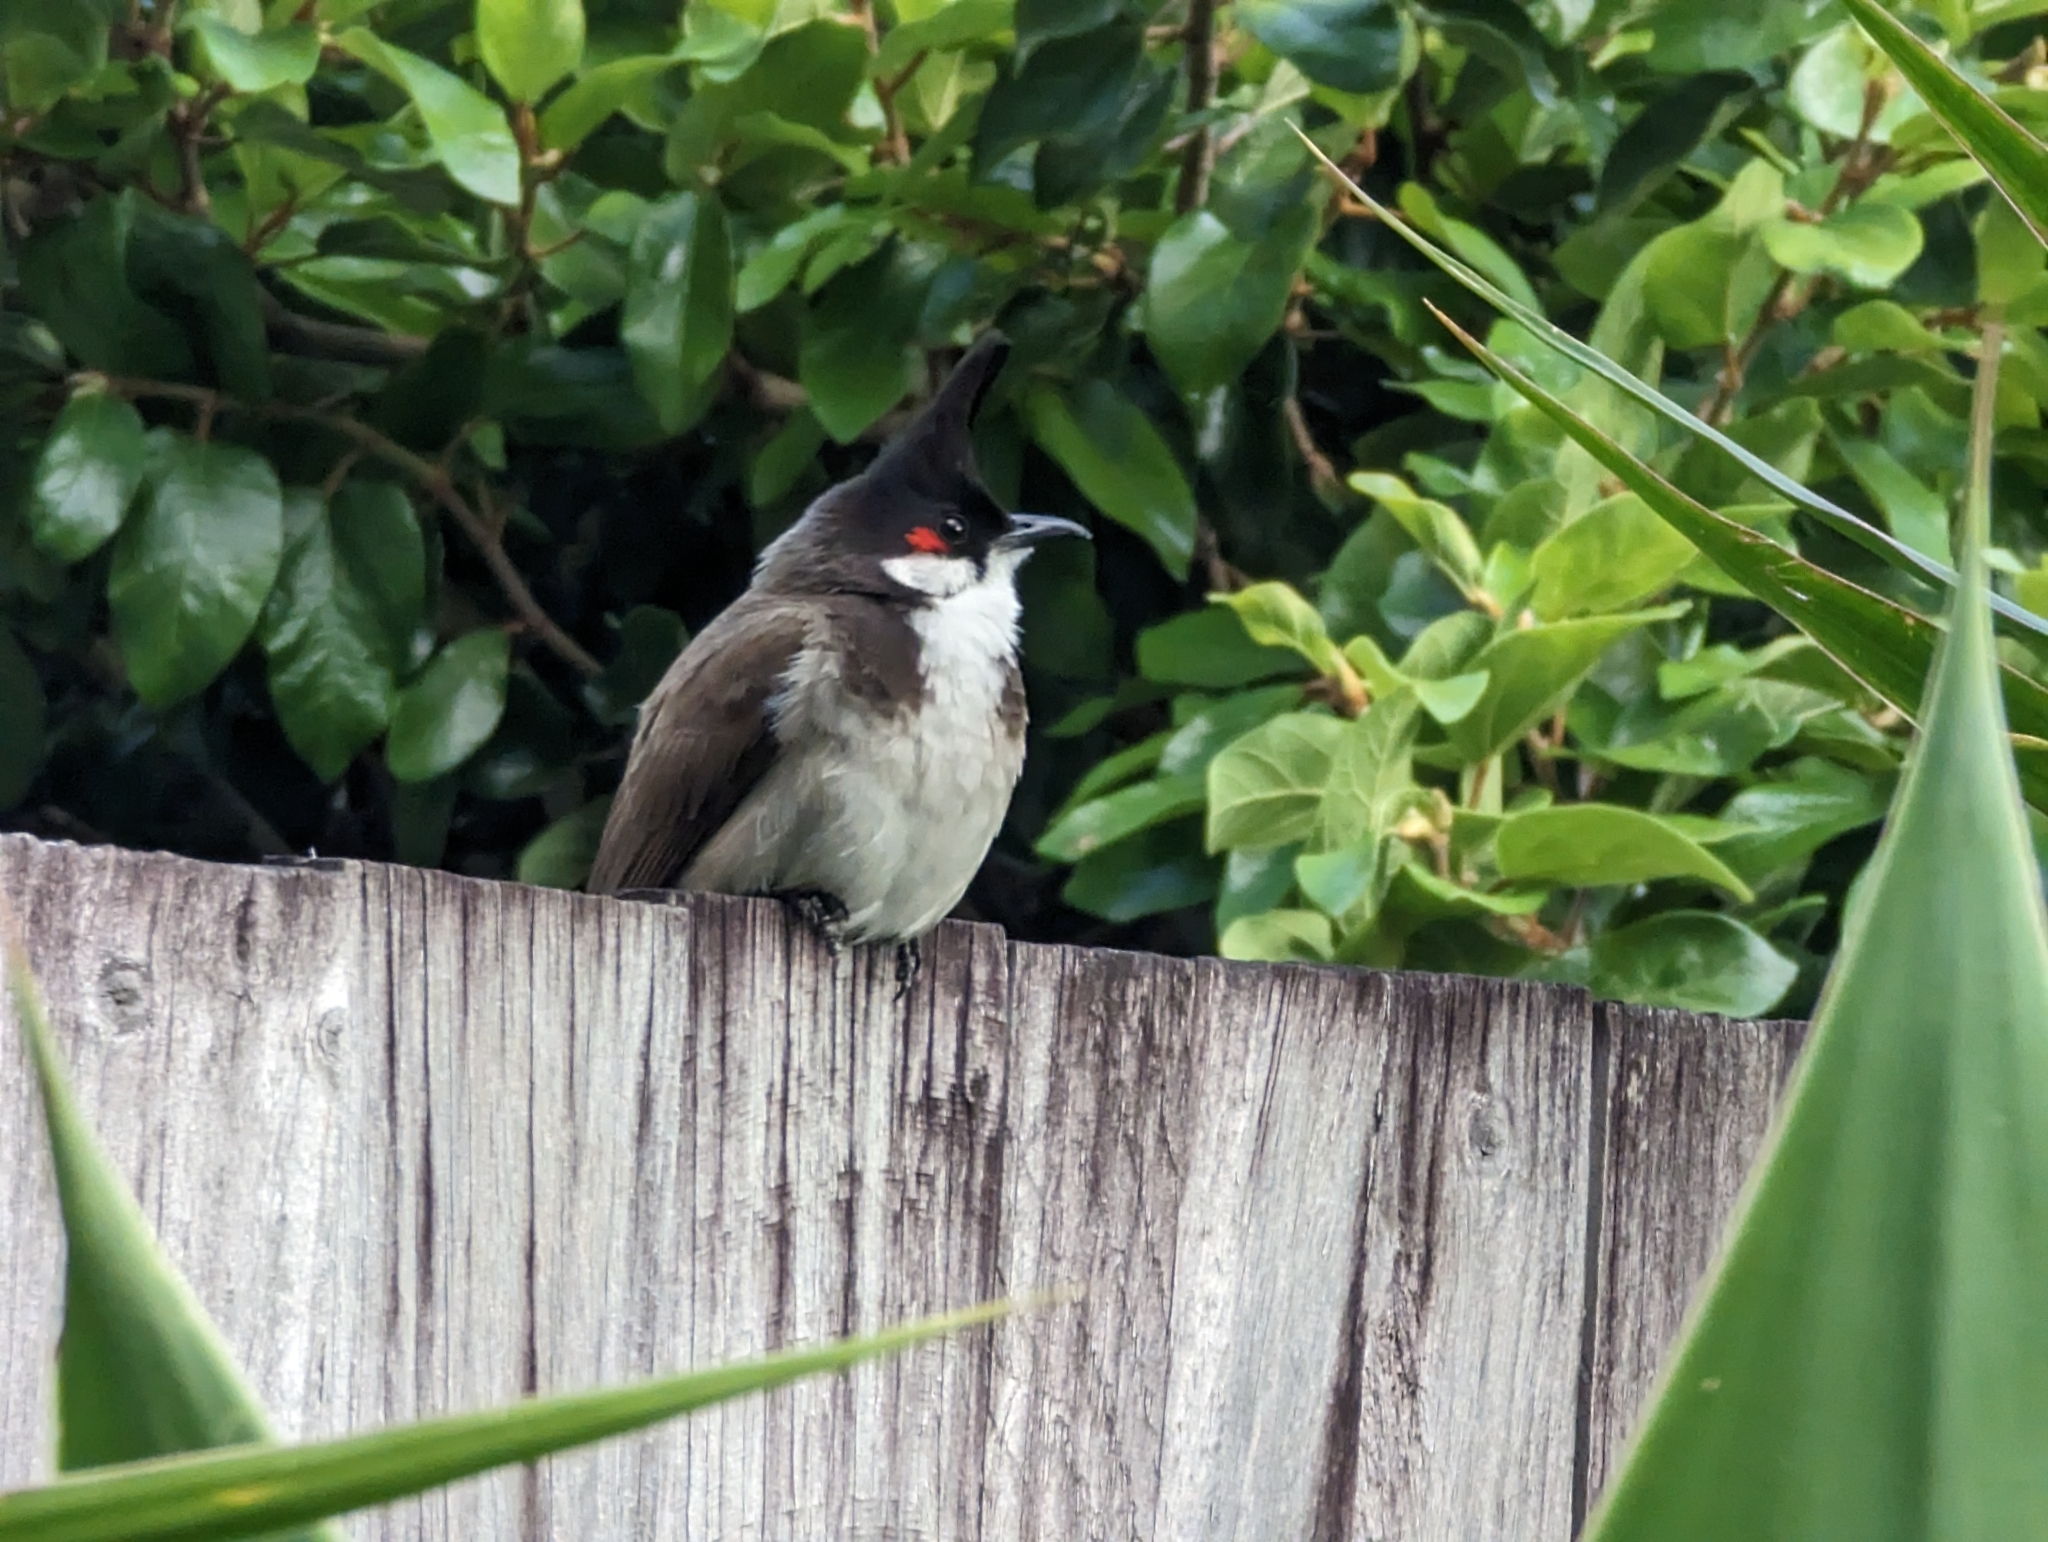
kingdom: Animalia
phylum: Chordata
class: Aves
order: Passeriformes
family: Pycnonotidae
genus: Pycnonotus
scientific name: Pycnonotus jocosus
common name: Red-whiskered bulbul
